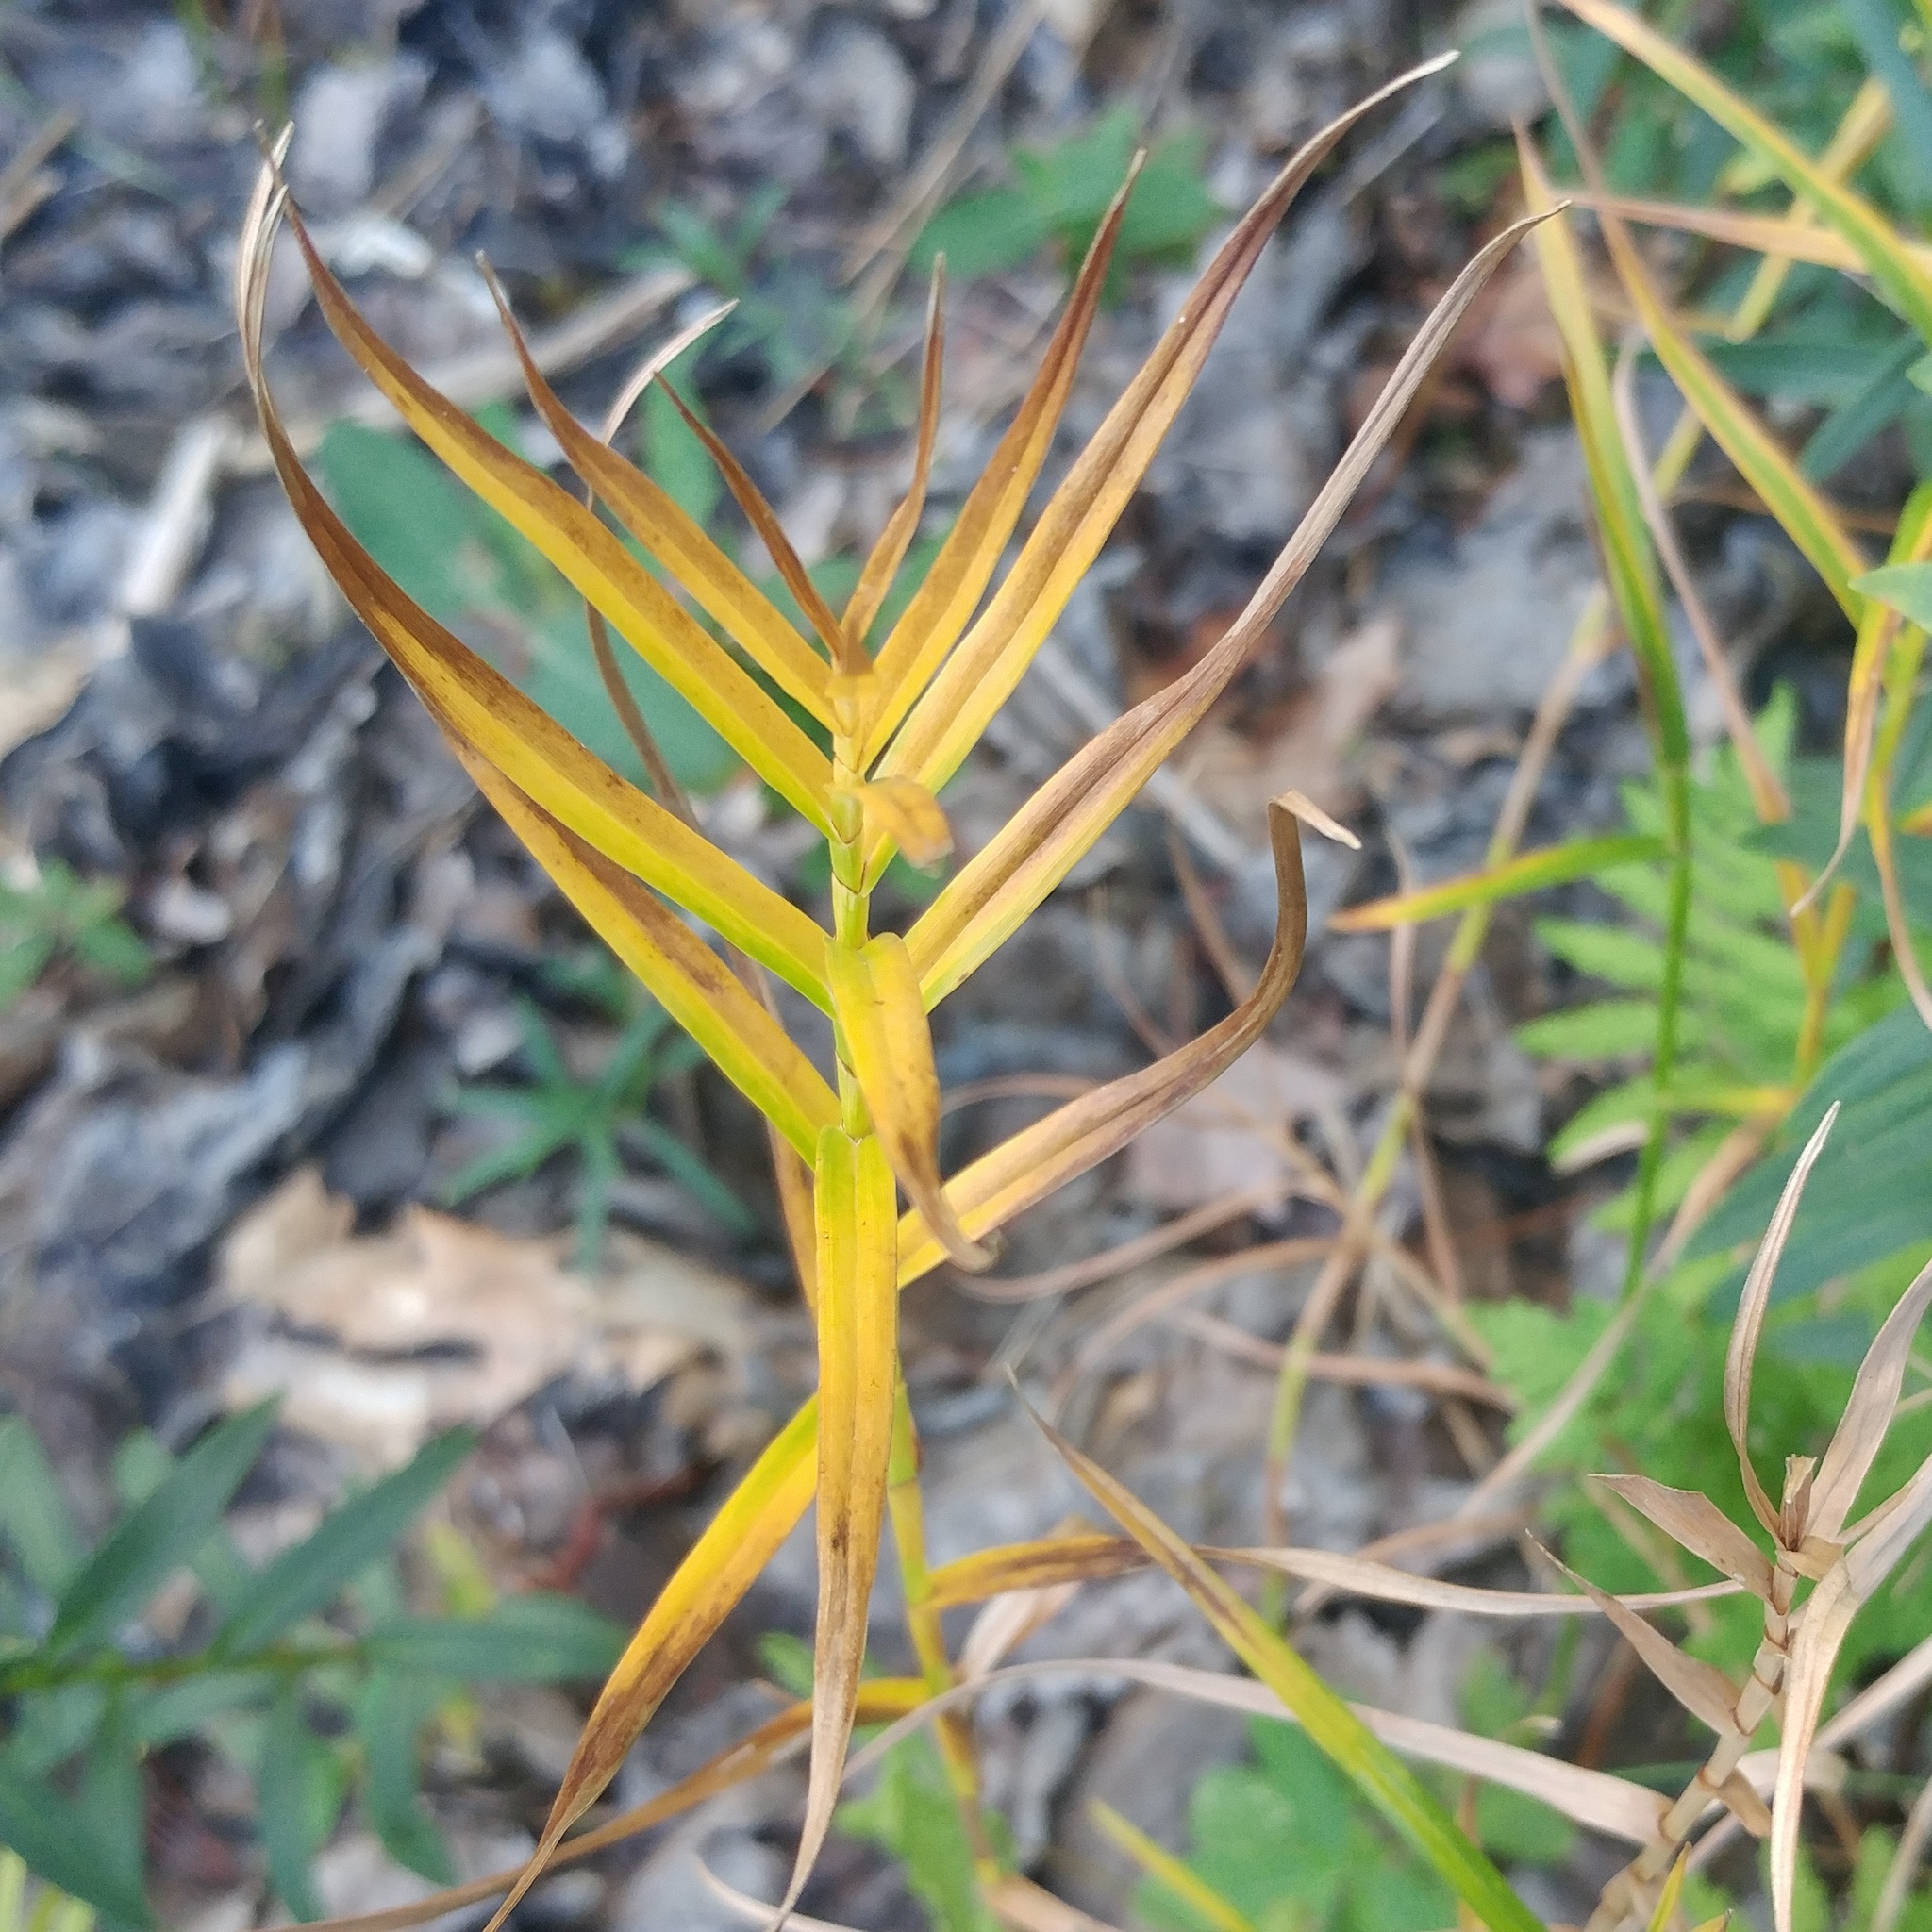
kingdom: Plantae
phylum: Tracheophyta
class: Liliopsida
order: Poales
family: Cyperaceae
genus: Dulichium
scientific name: Dulichium arundinaceum
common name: Three-way sedge
